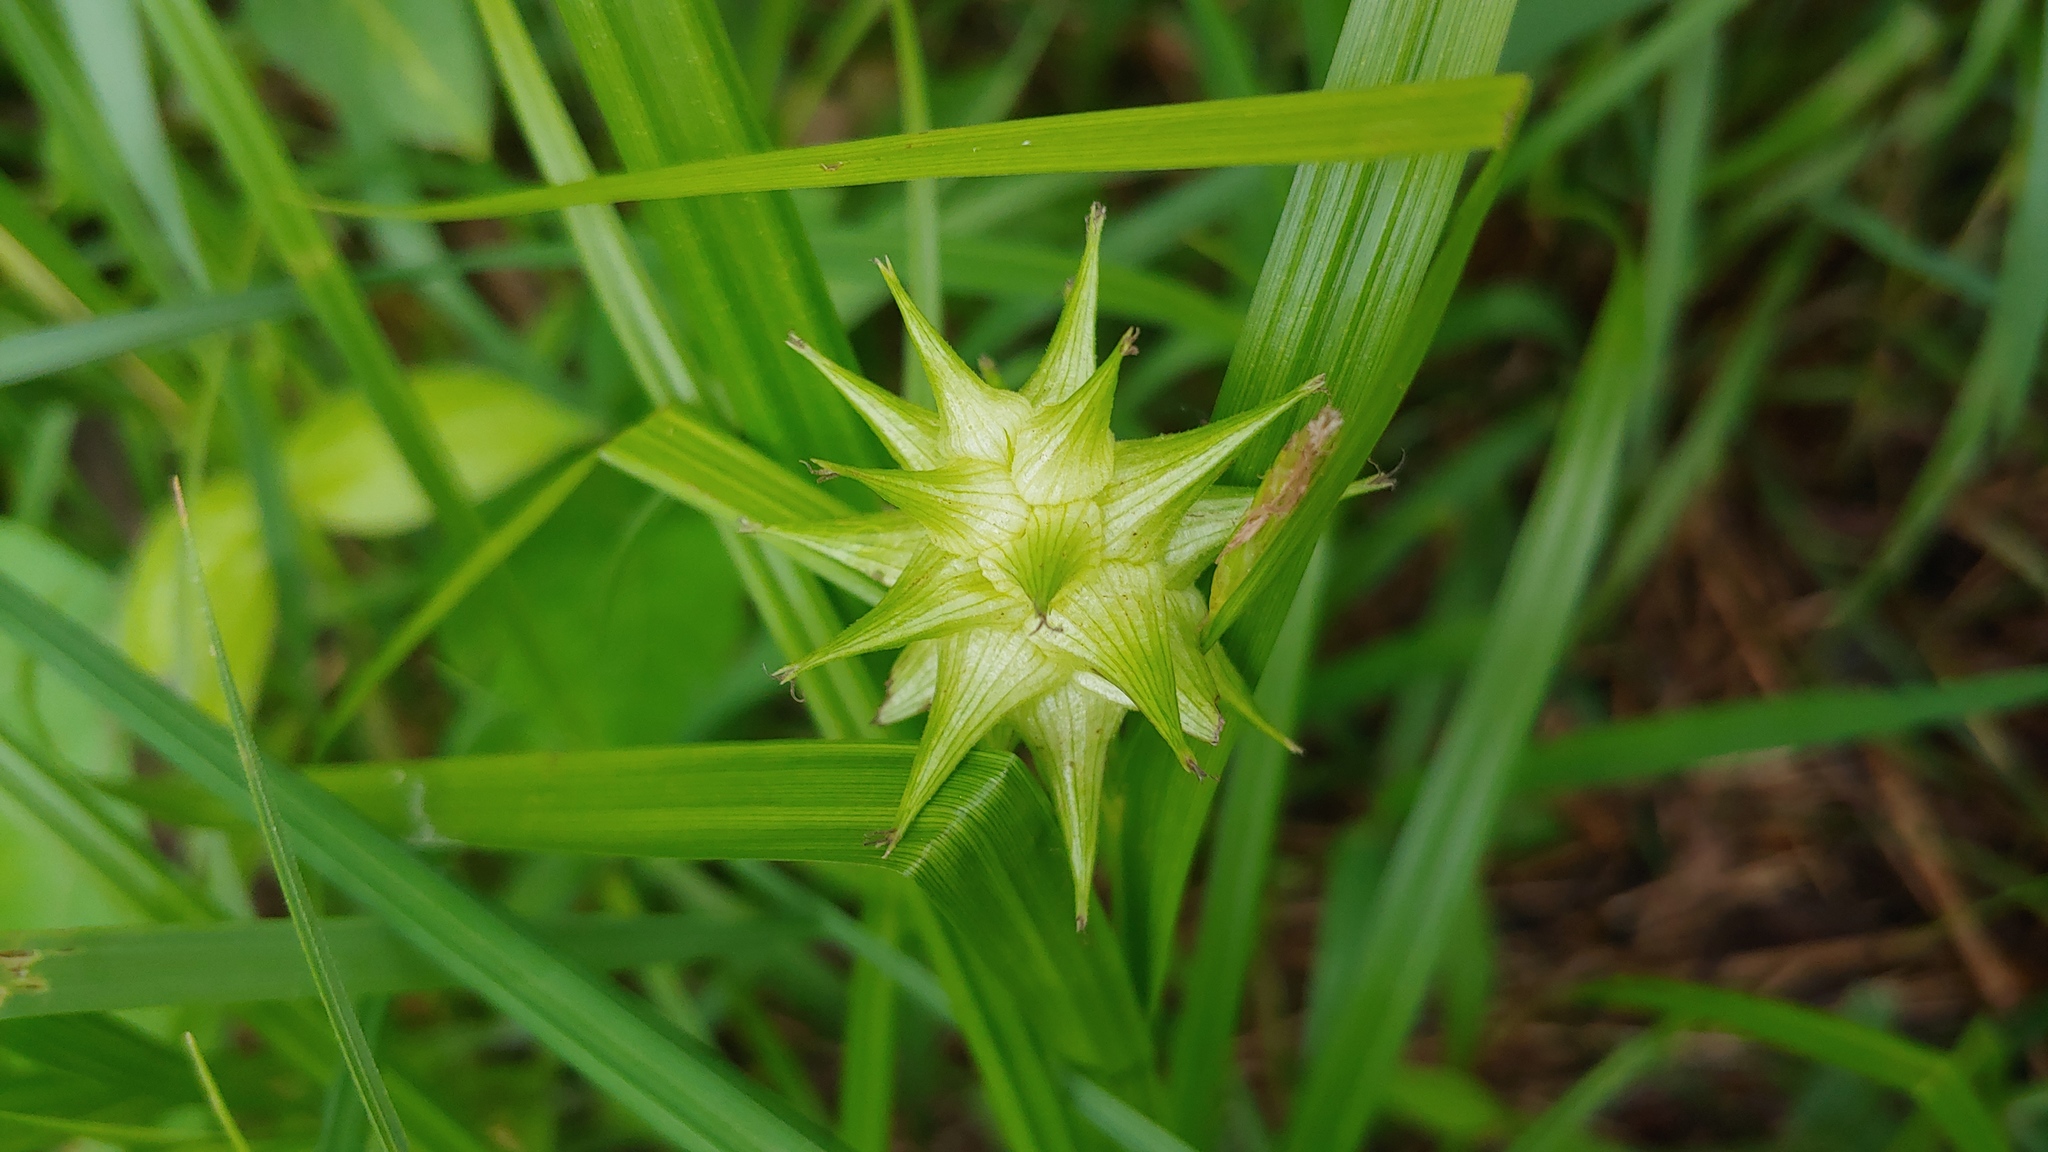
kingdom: Plantae
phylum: Tracheophyta
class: Liliopsida
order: Poales
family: Cyperaceae
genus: Carex
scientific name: Carex grayi
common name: Asa gray's sedge
